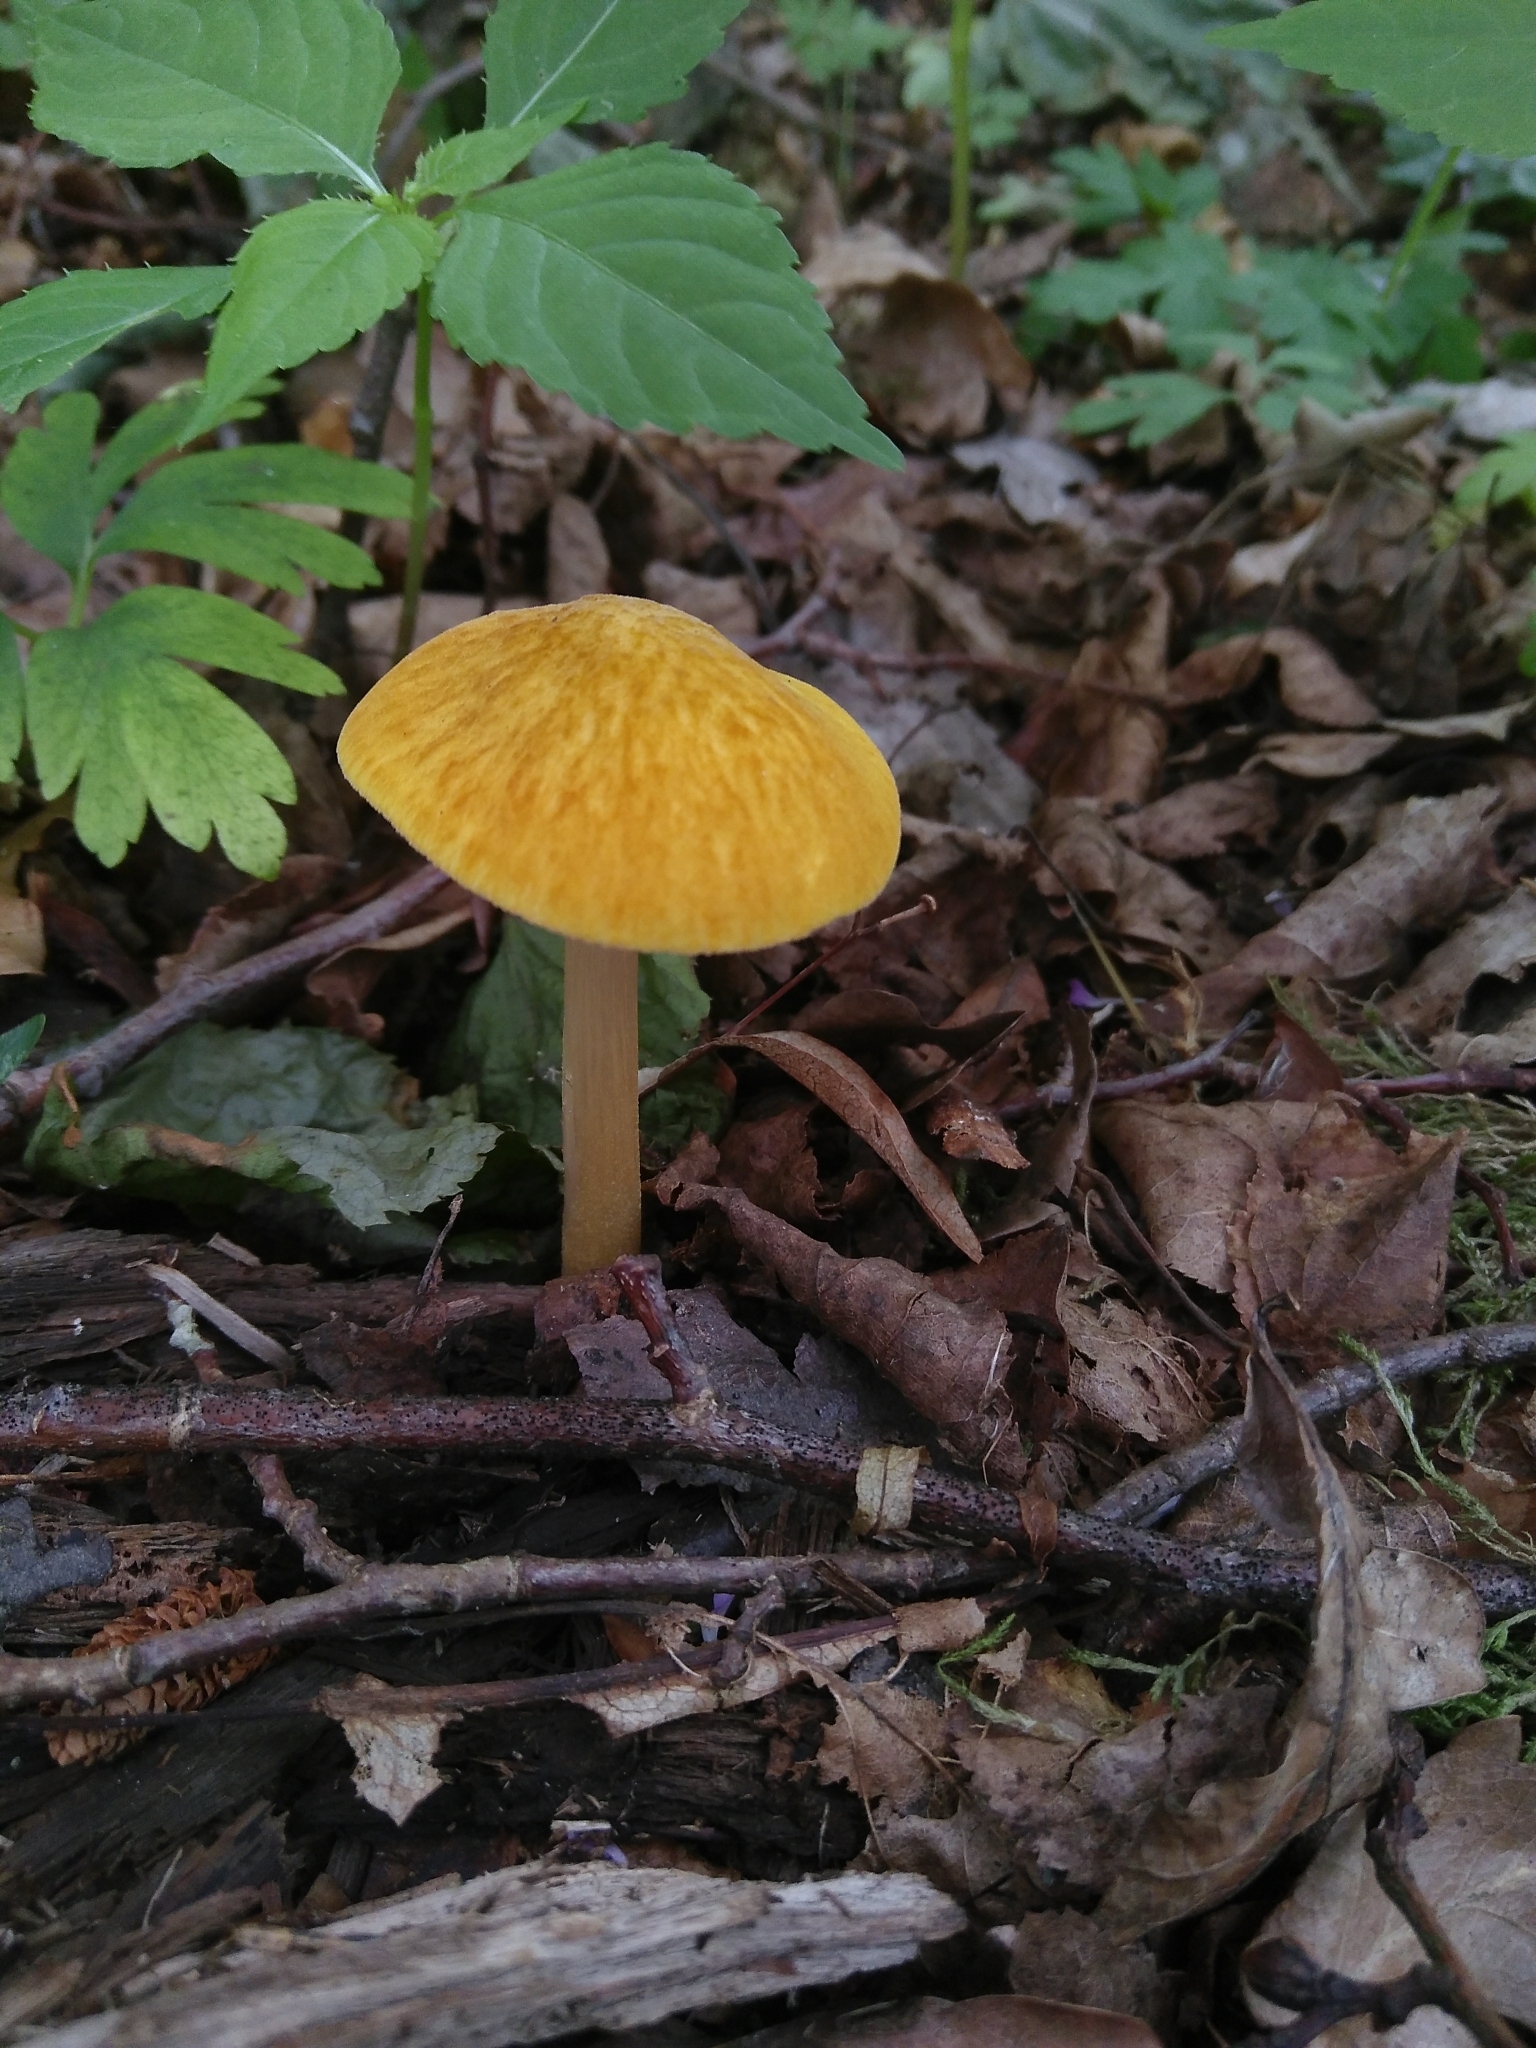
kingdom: Fungi
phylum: Basidiomycota
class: Agaricomycetes
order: Agaricales
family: Pluteaceae
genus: Pluteus
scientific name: Pluteus leoninus
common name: Lion shield
